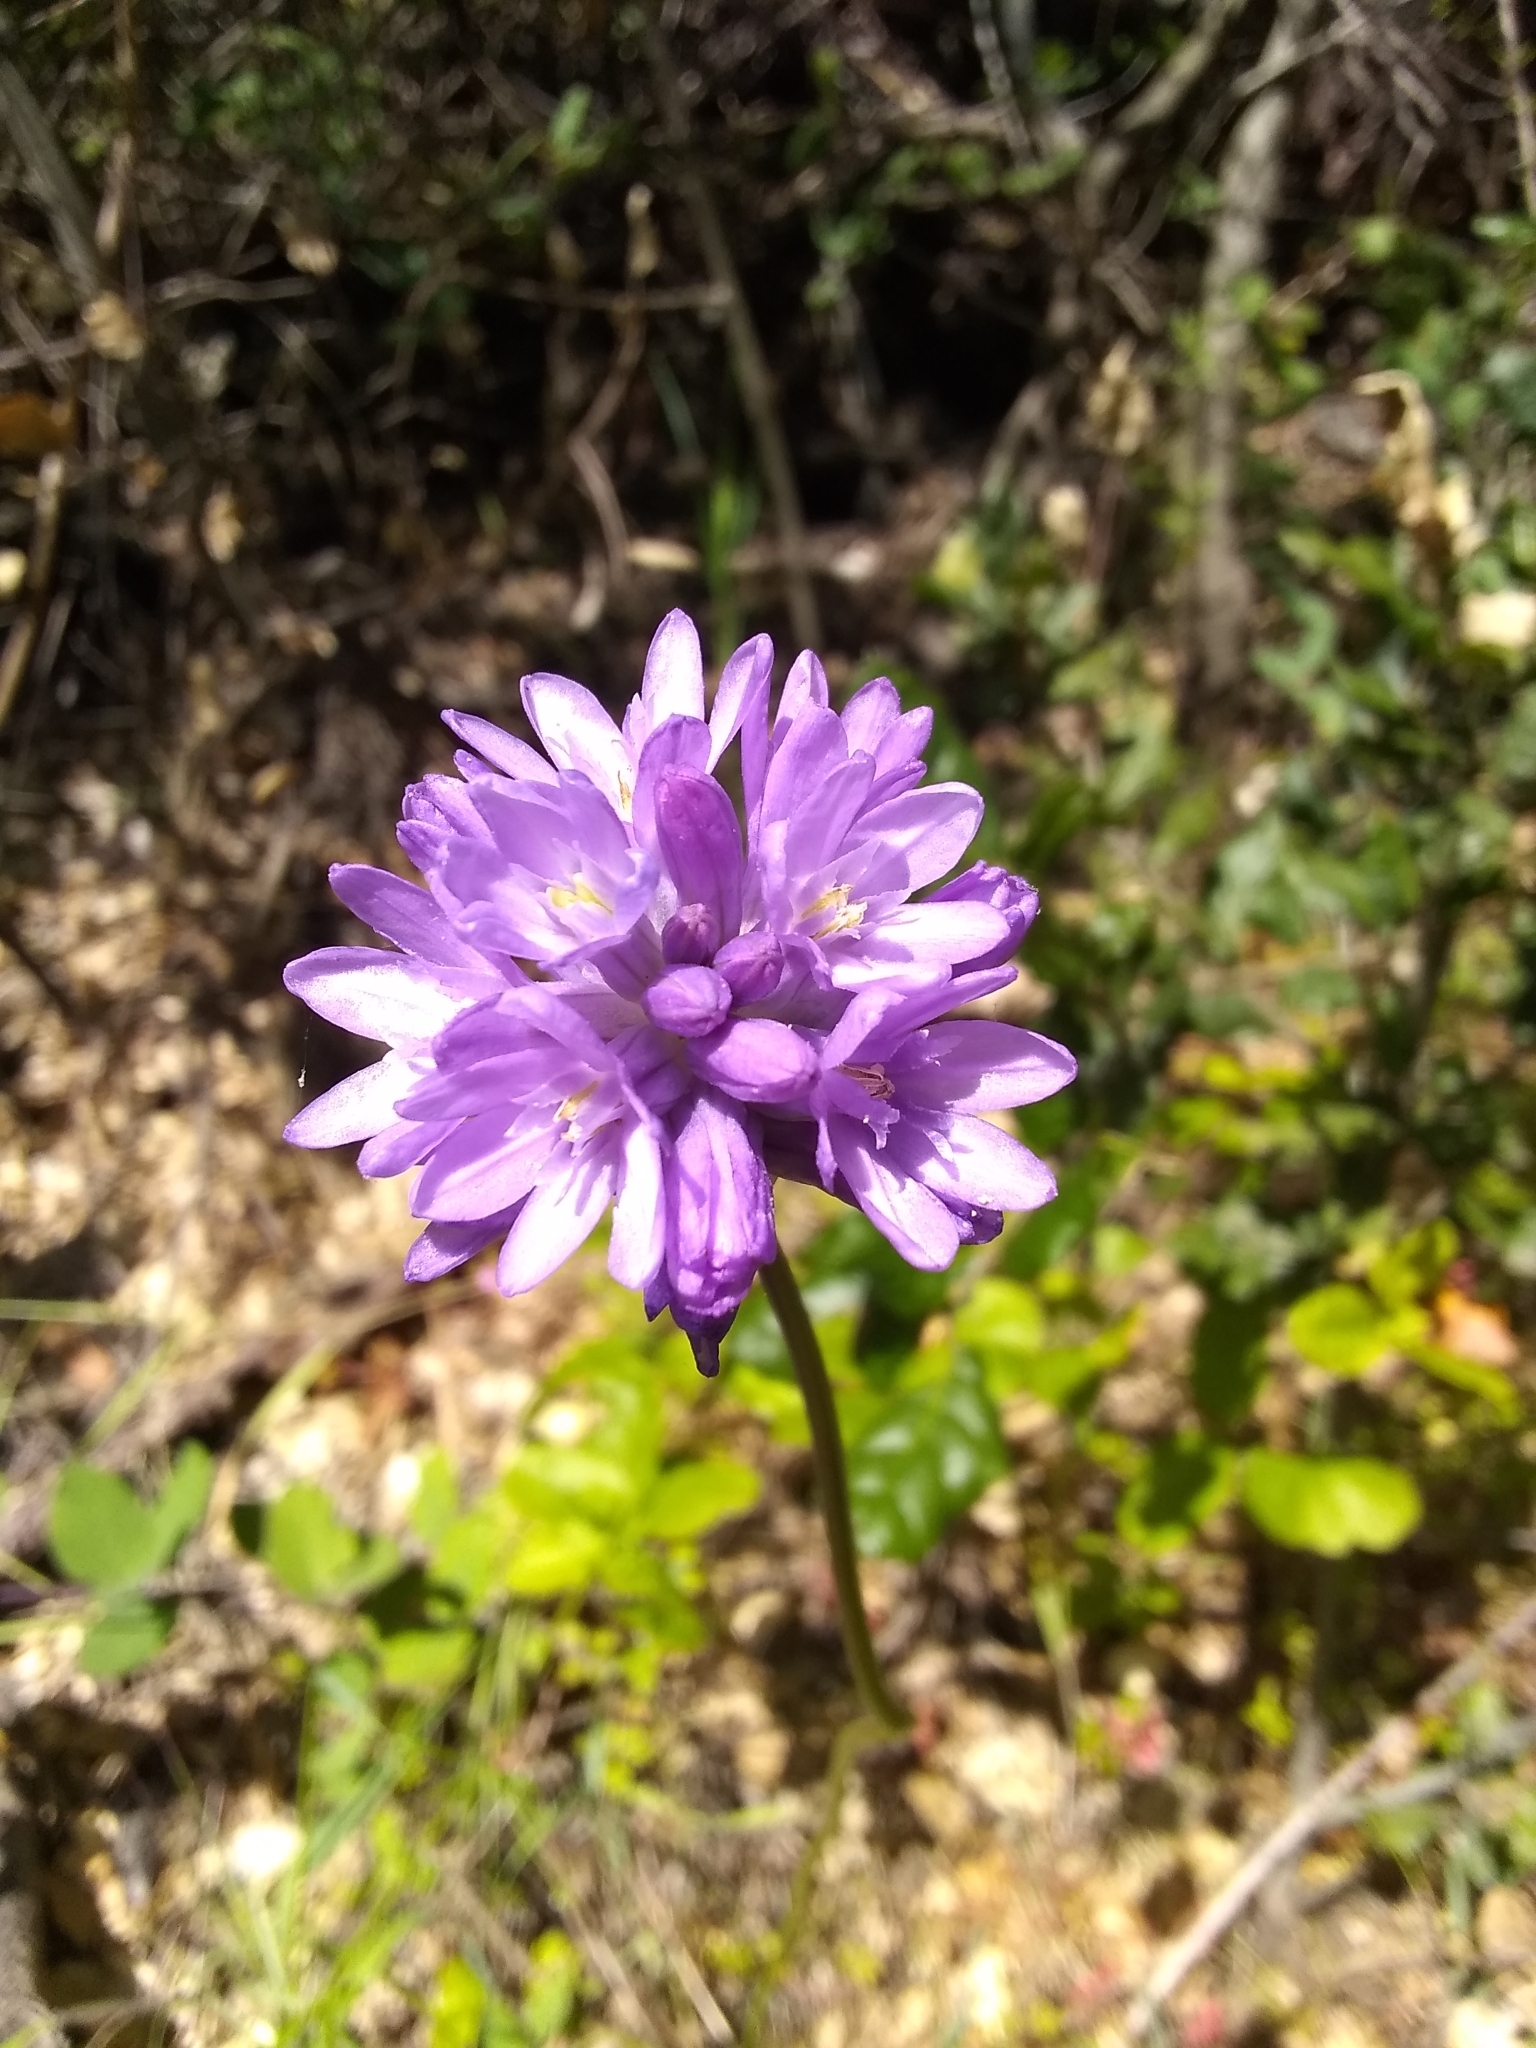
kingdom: Plantae
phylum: Tracheophyta
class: Liliopsida
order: Asparagales
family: Asparagaceae
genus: Dichelostemma
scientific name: Dichelostemma congestum
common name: Fork-tooth ookow
